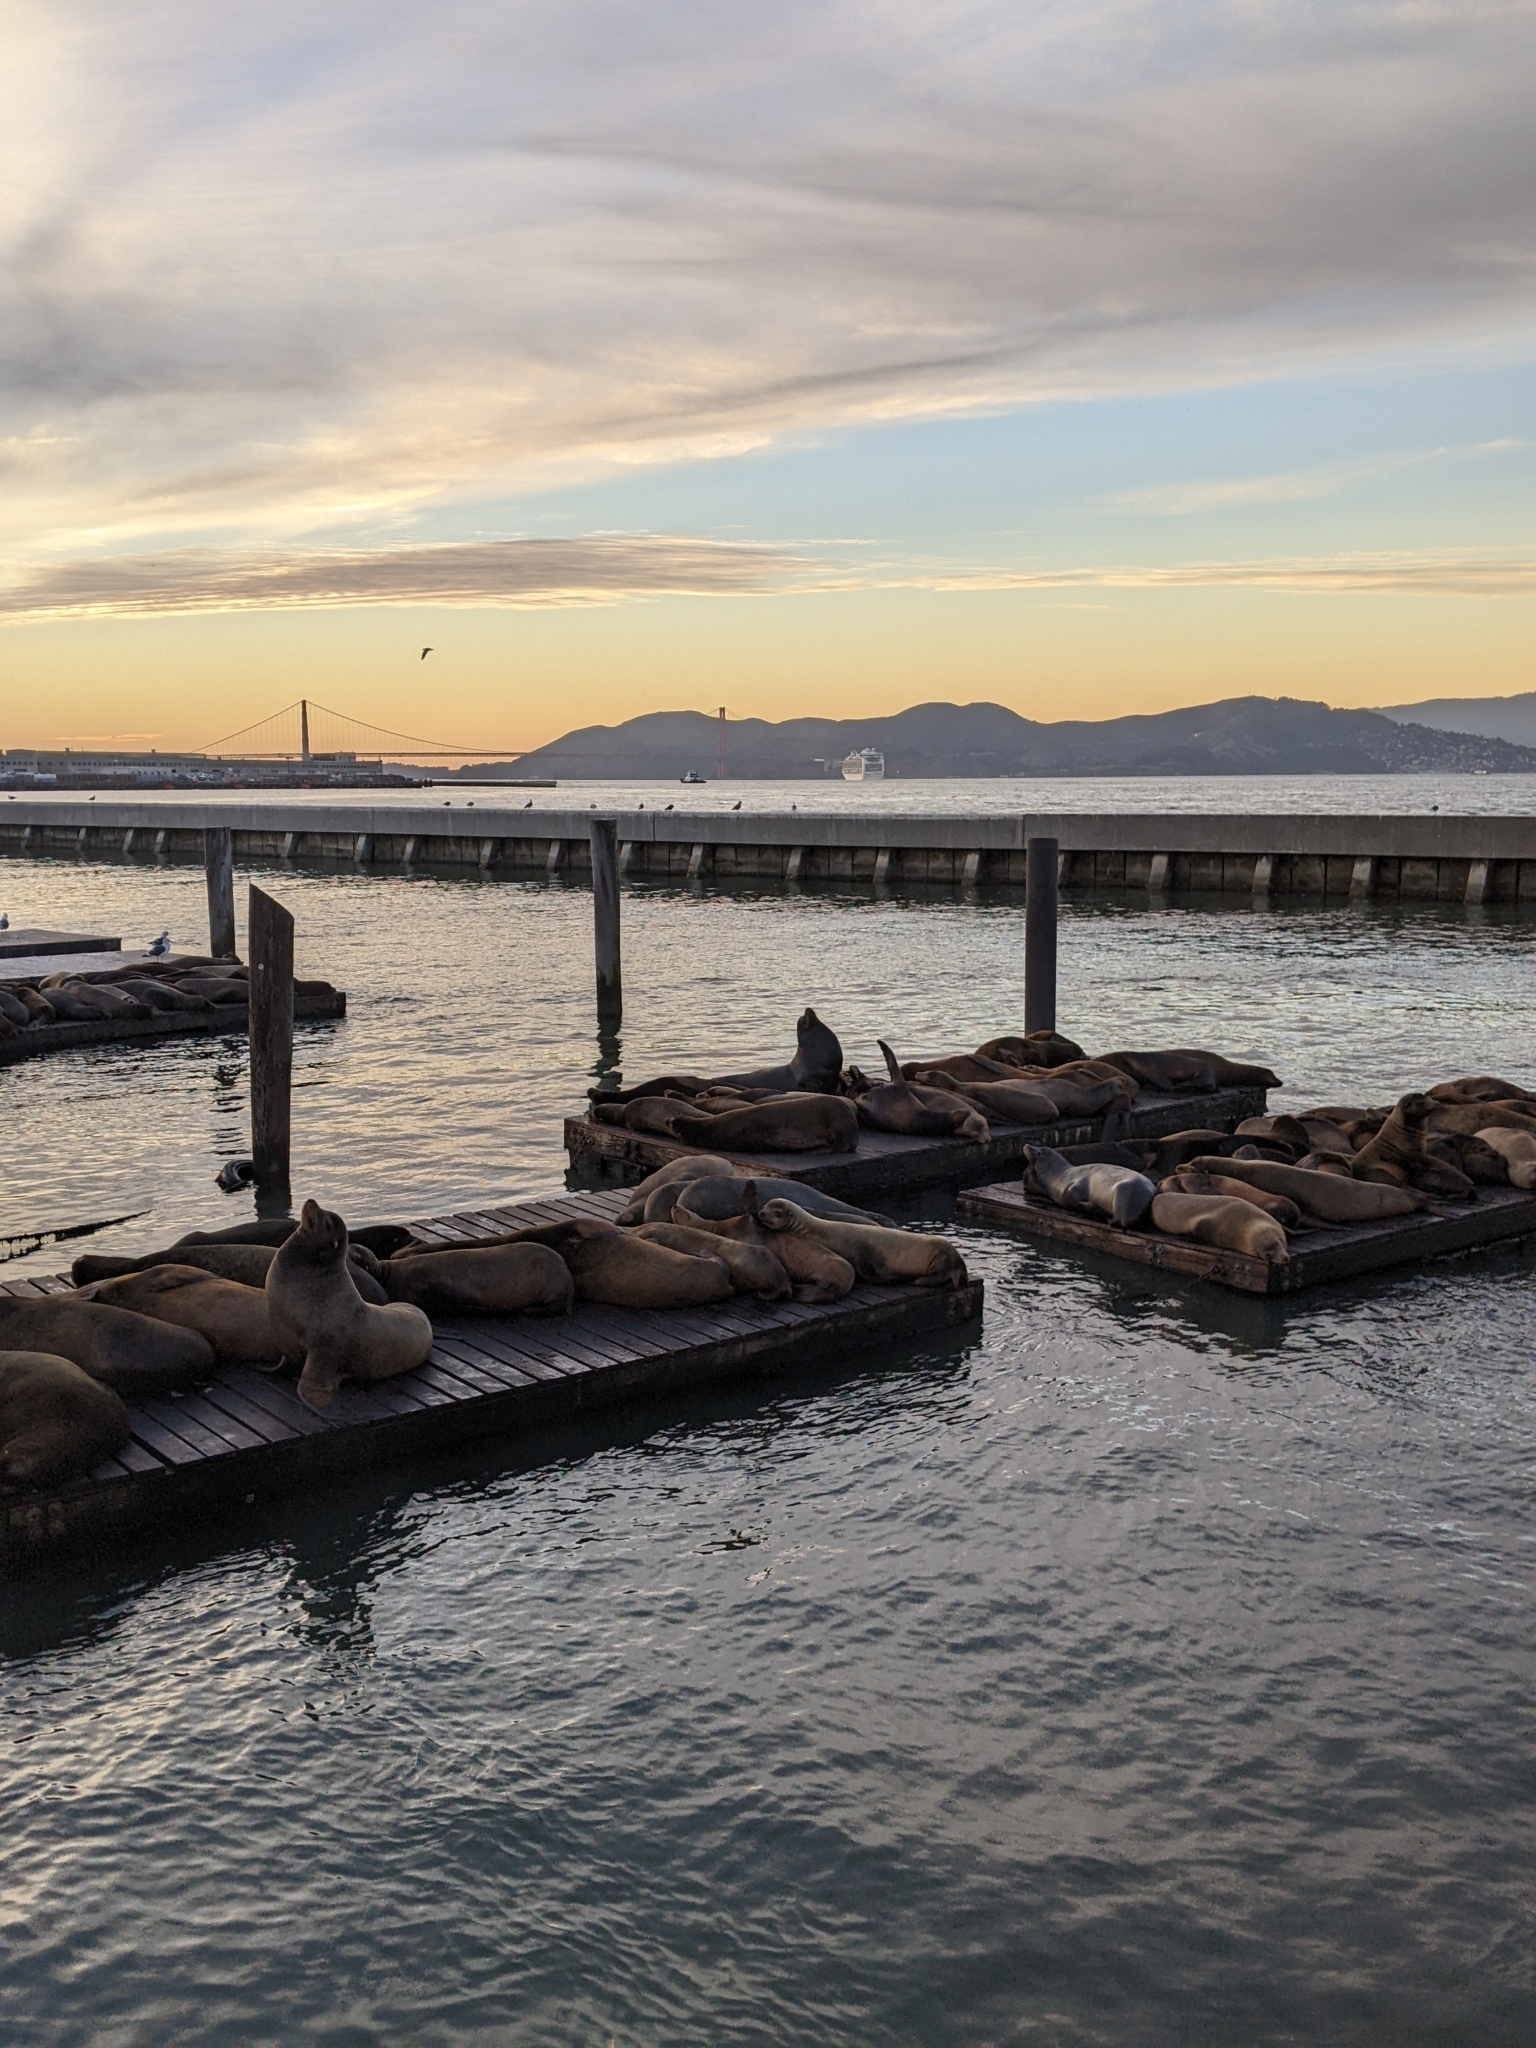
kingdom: Animalia
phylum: Chordata
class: Mammalia
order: Carnivora
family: Otariidae
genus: Zalophus
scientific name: Zalophus californianus
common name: California sea lion
